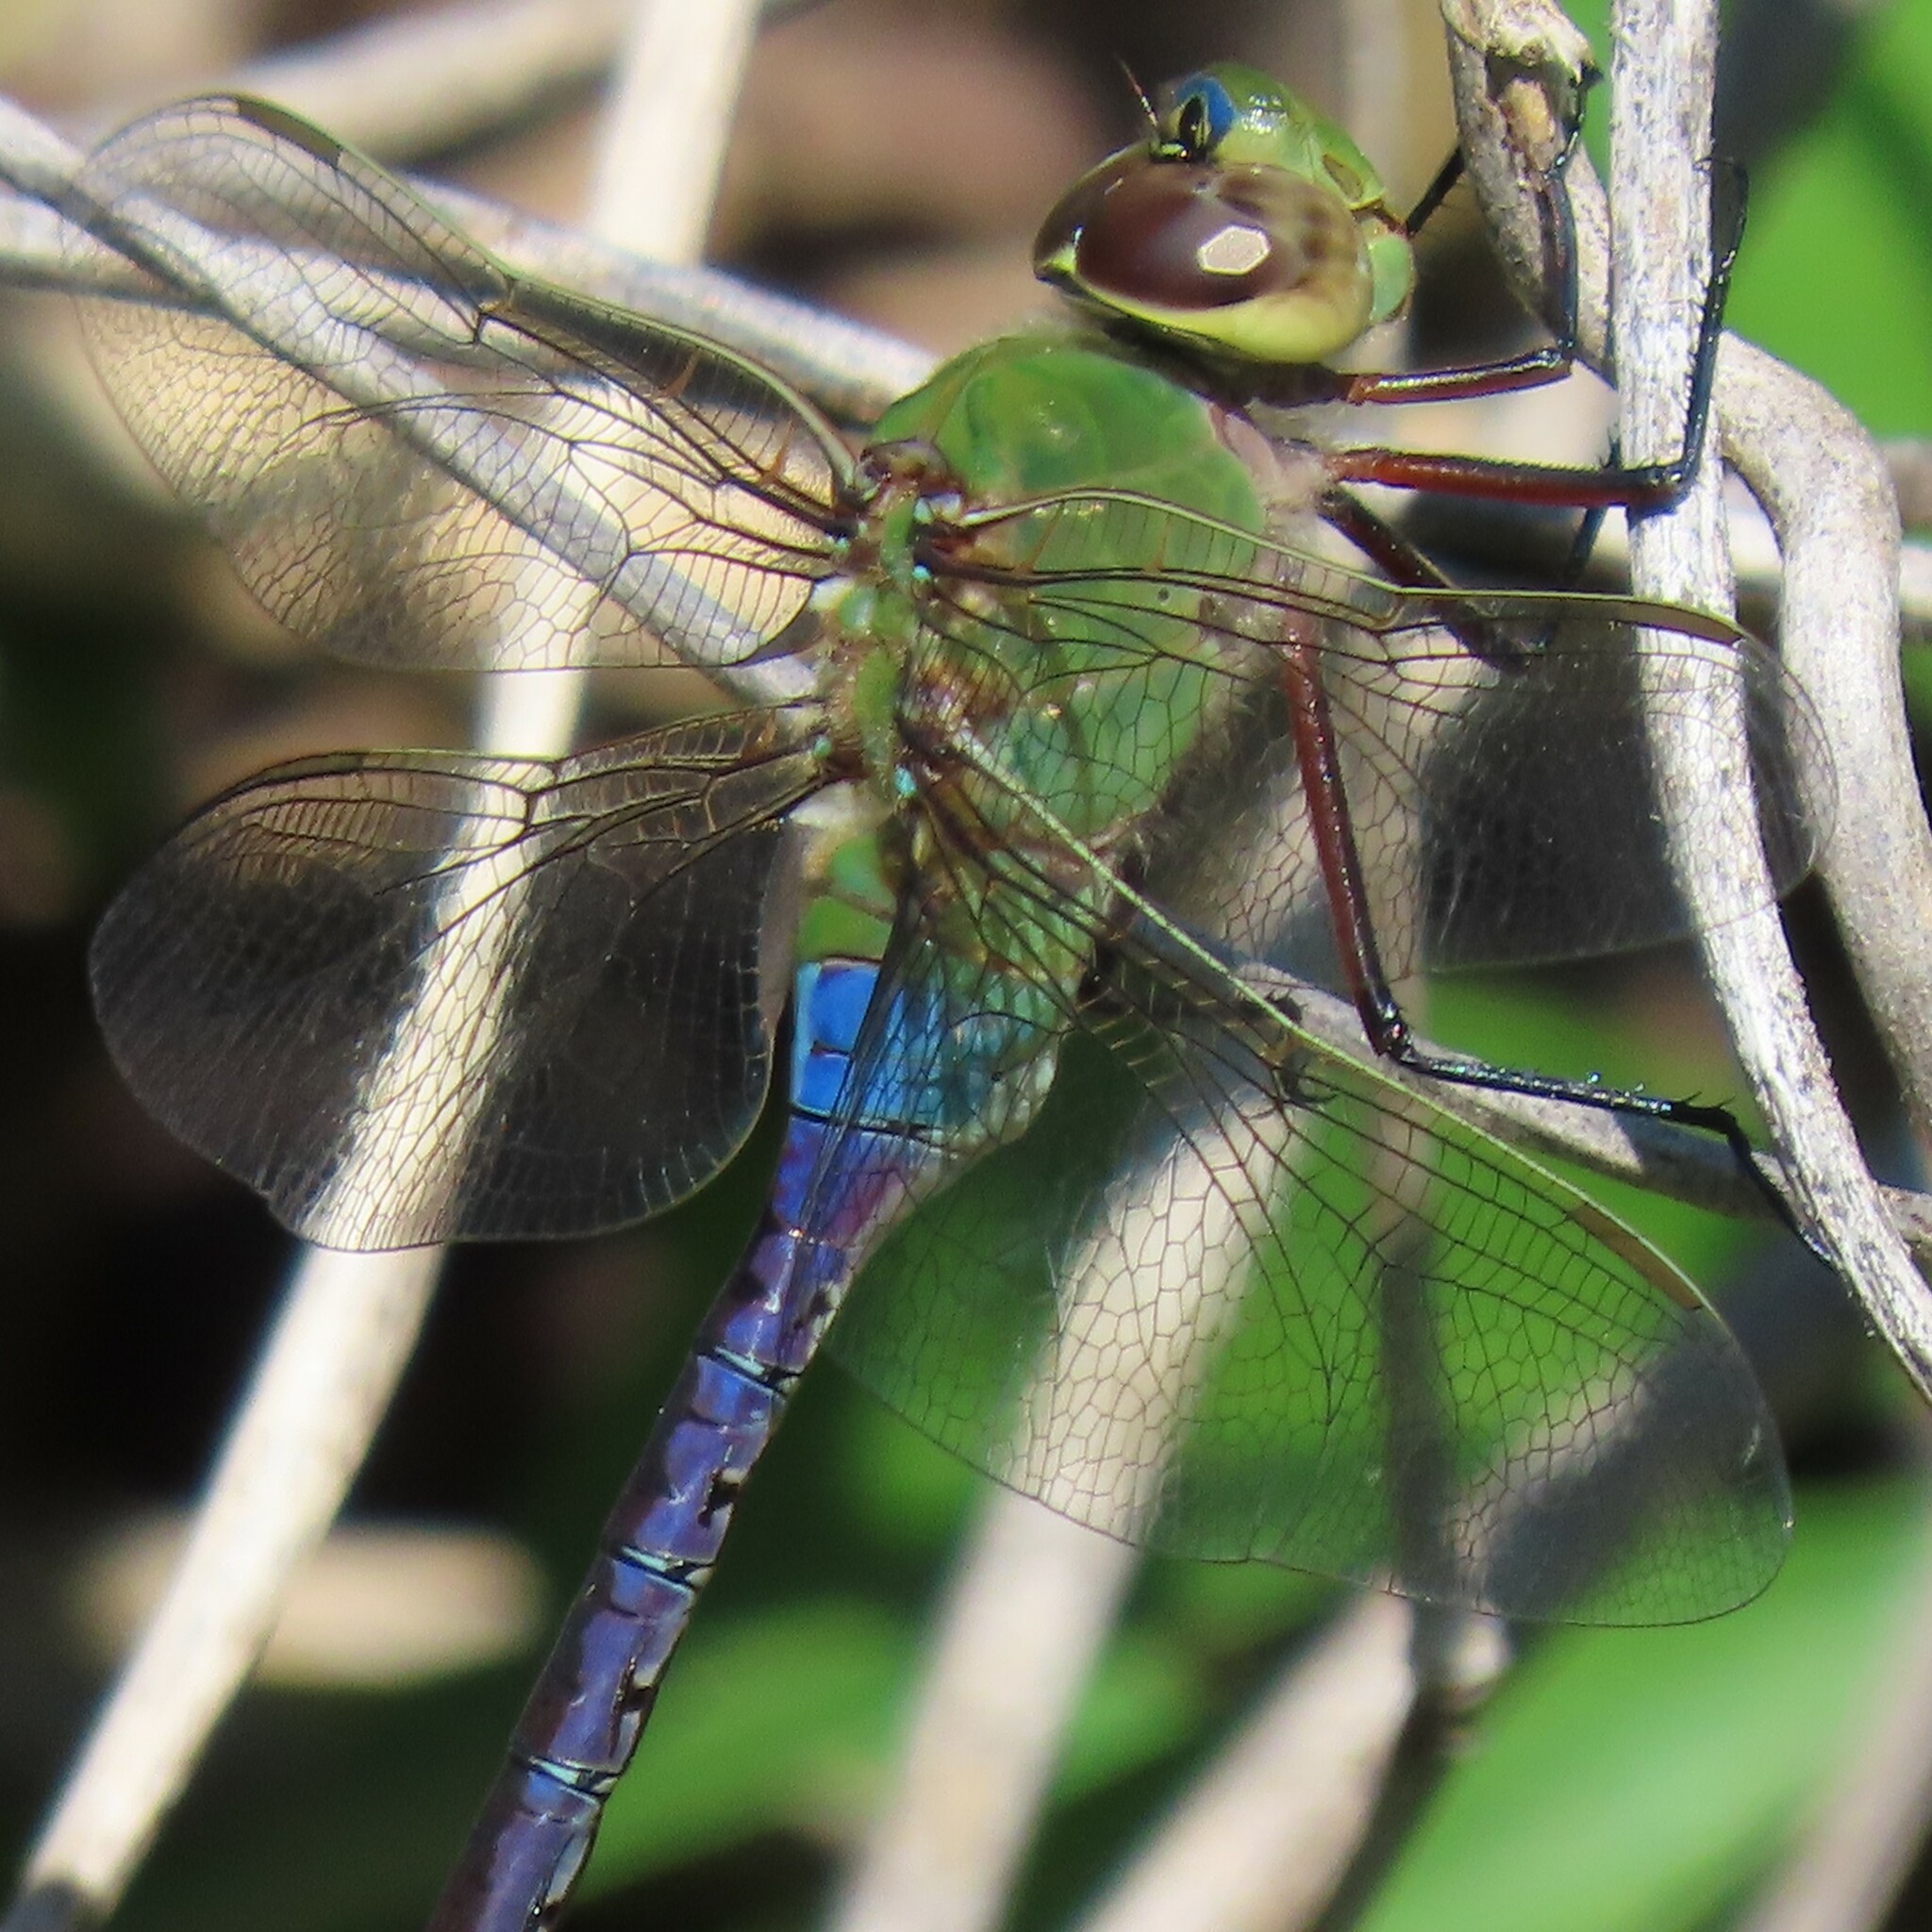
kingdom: Animalia
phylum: Arthropoda
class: Insecta
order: Odonata
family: Aeshnidae
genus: Anax
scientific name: Anax junius
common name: Common green darner
